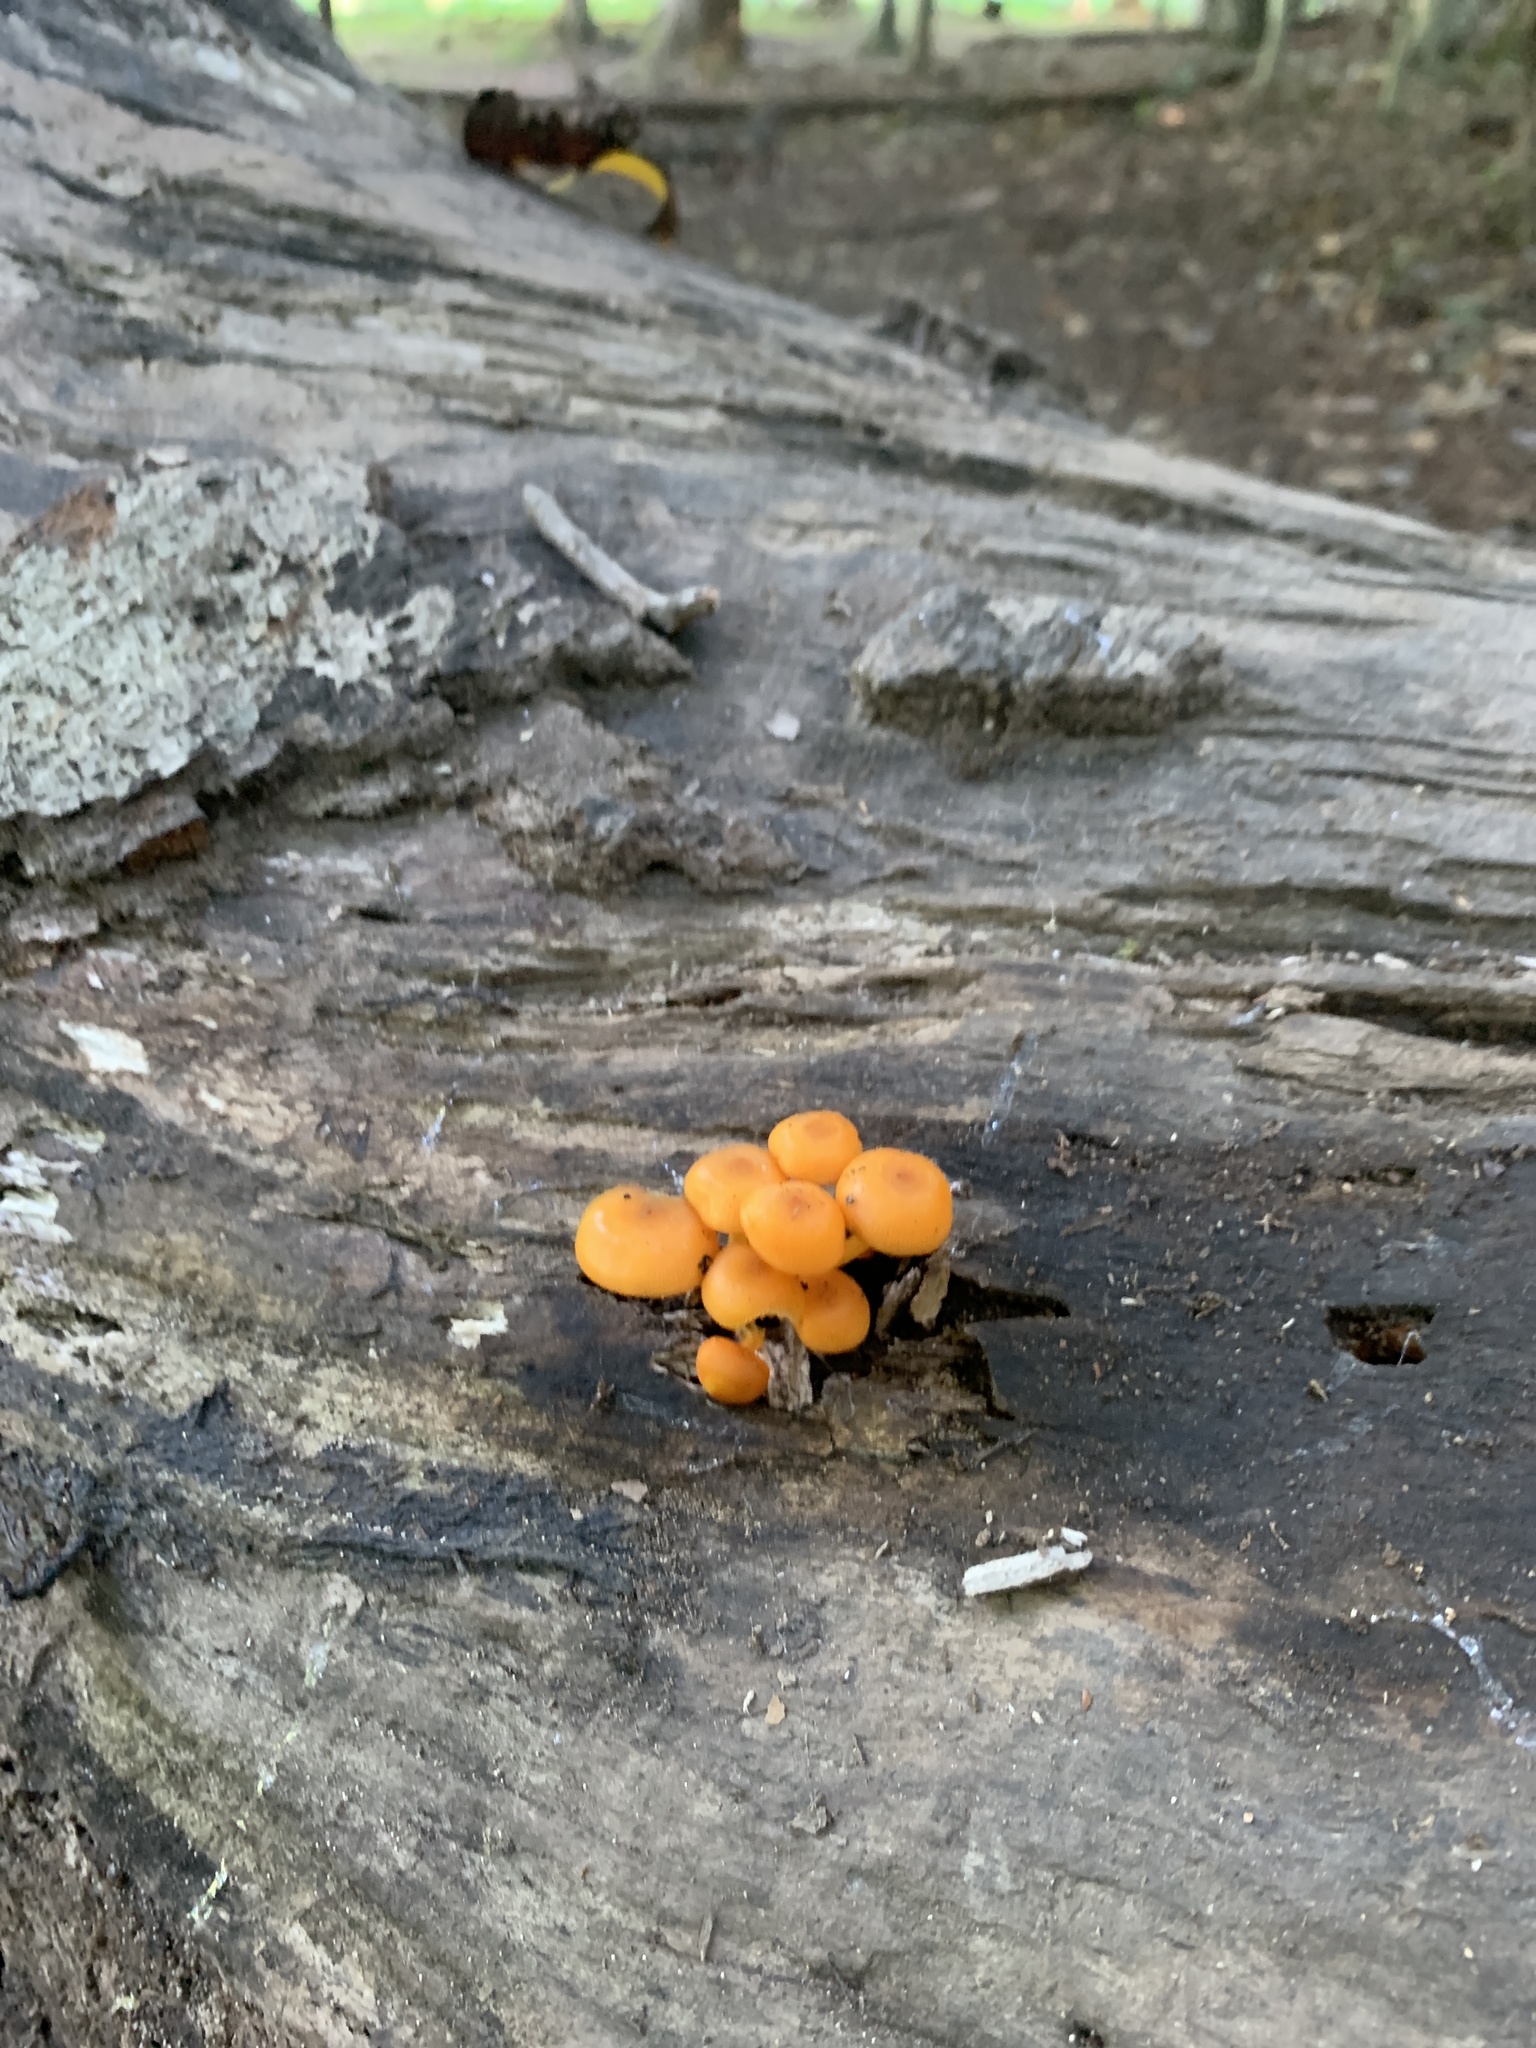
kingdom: Fungi
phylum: Basidiomycota
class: Agaricomycetes
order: Agaricales
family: Mycenaceae
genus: Mycena
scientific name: Mycena leaiana
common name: Orange mycena
